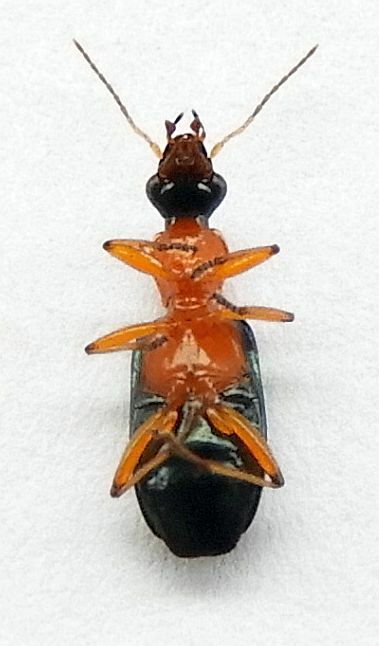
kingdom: Animalia
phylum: Arthropoda
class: Insecta
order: Coleoptera
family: Carabidae
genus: Calleida
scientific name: Calleida cordicollis
